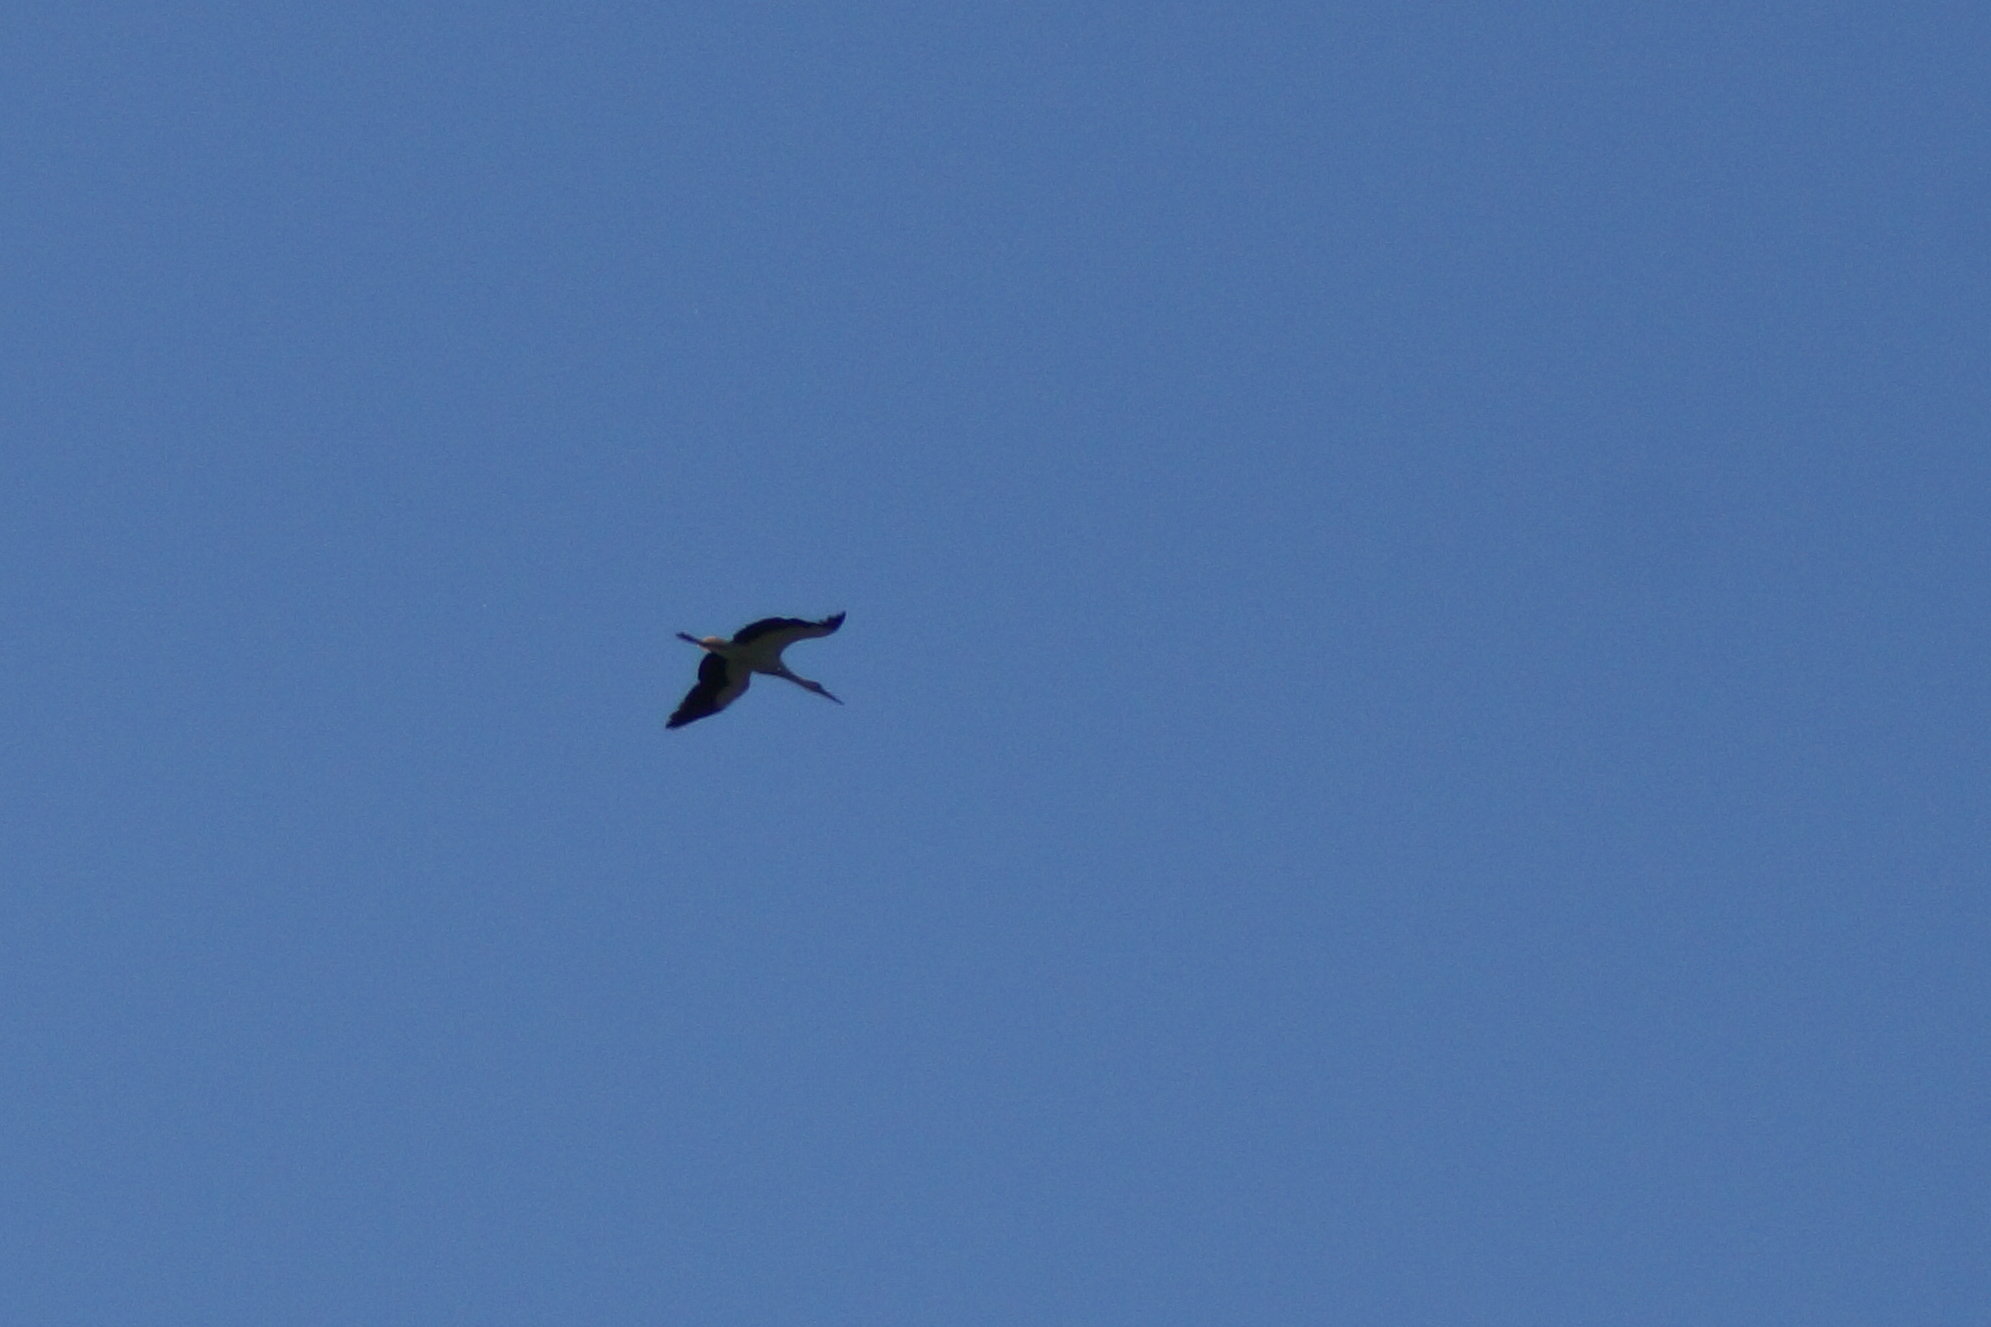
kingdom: Animalia
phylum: Chordata
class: Aves
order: Ciconiiformes
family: Ciconiidae
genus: Ciconia
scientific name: Ciconia ciconia
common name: White stork
